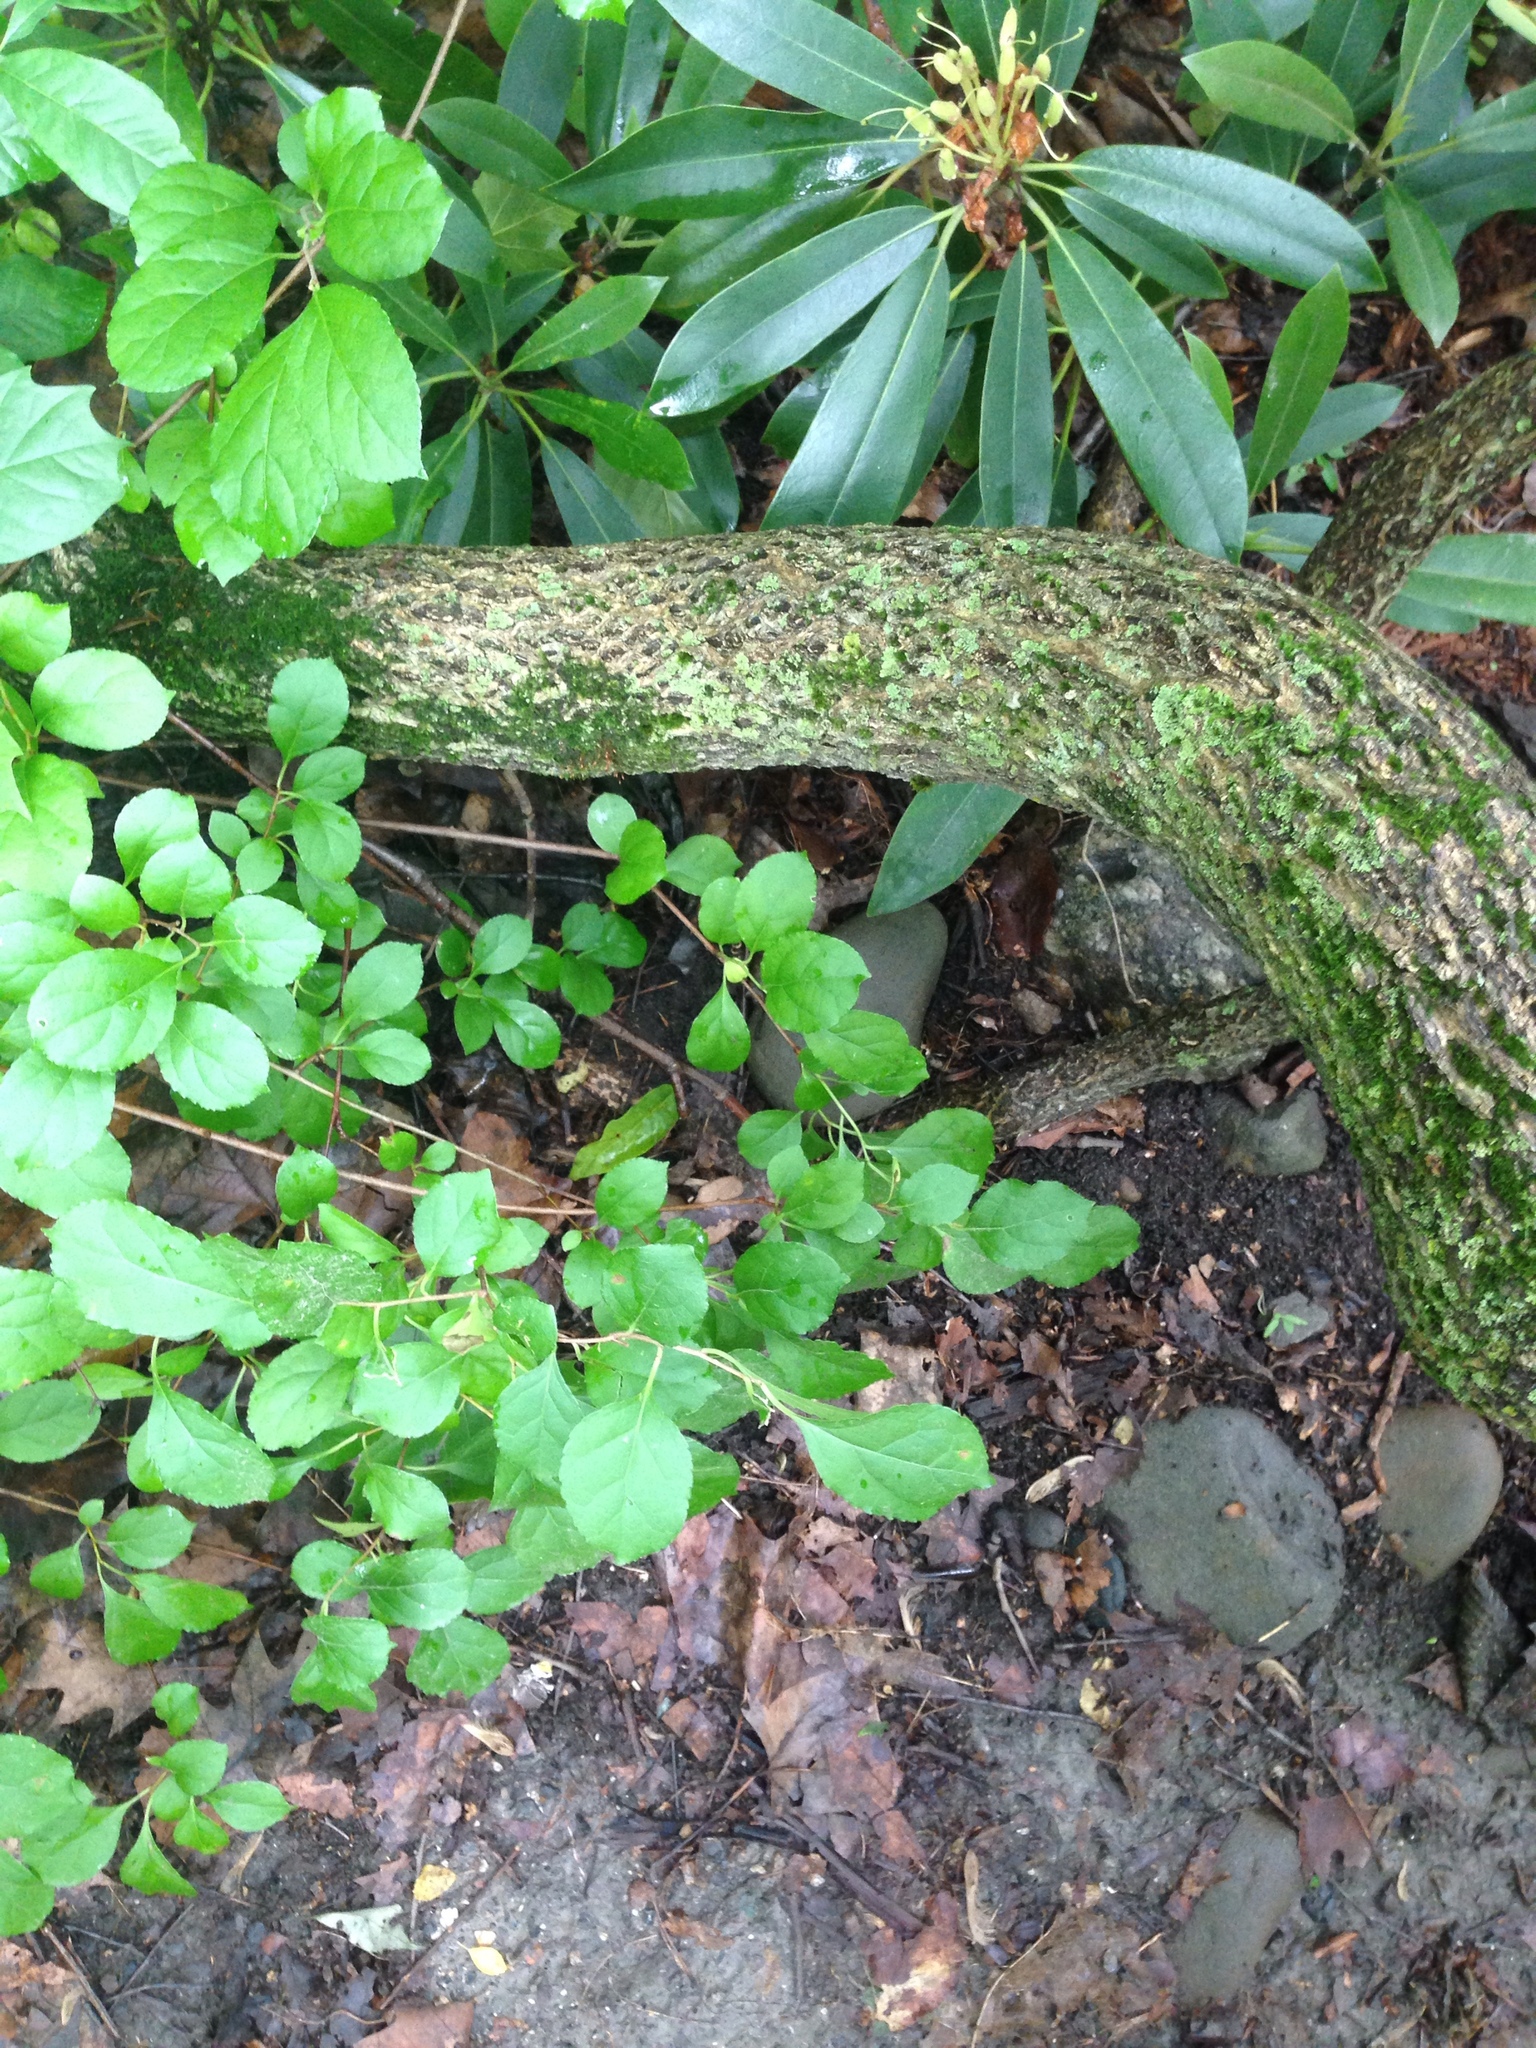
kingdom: Plantae
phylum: Tracheophyta
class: Magnoliopsida
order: Celastrales
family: Celastraceae
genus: Celastrus
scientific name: Celastrus orbiculatus
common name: Oriental bittersweet
